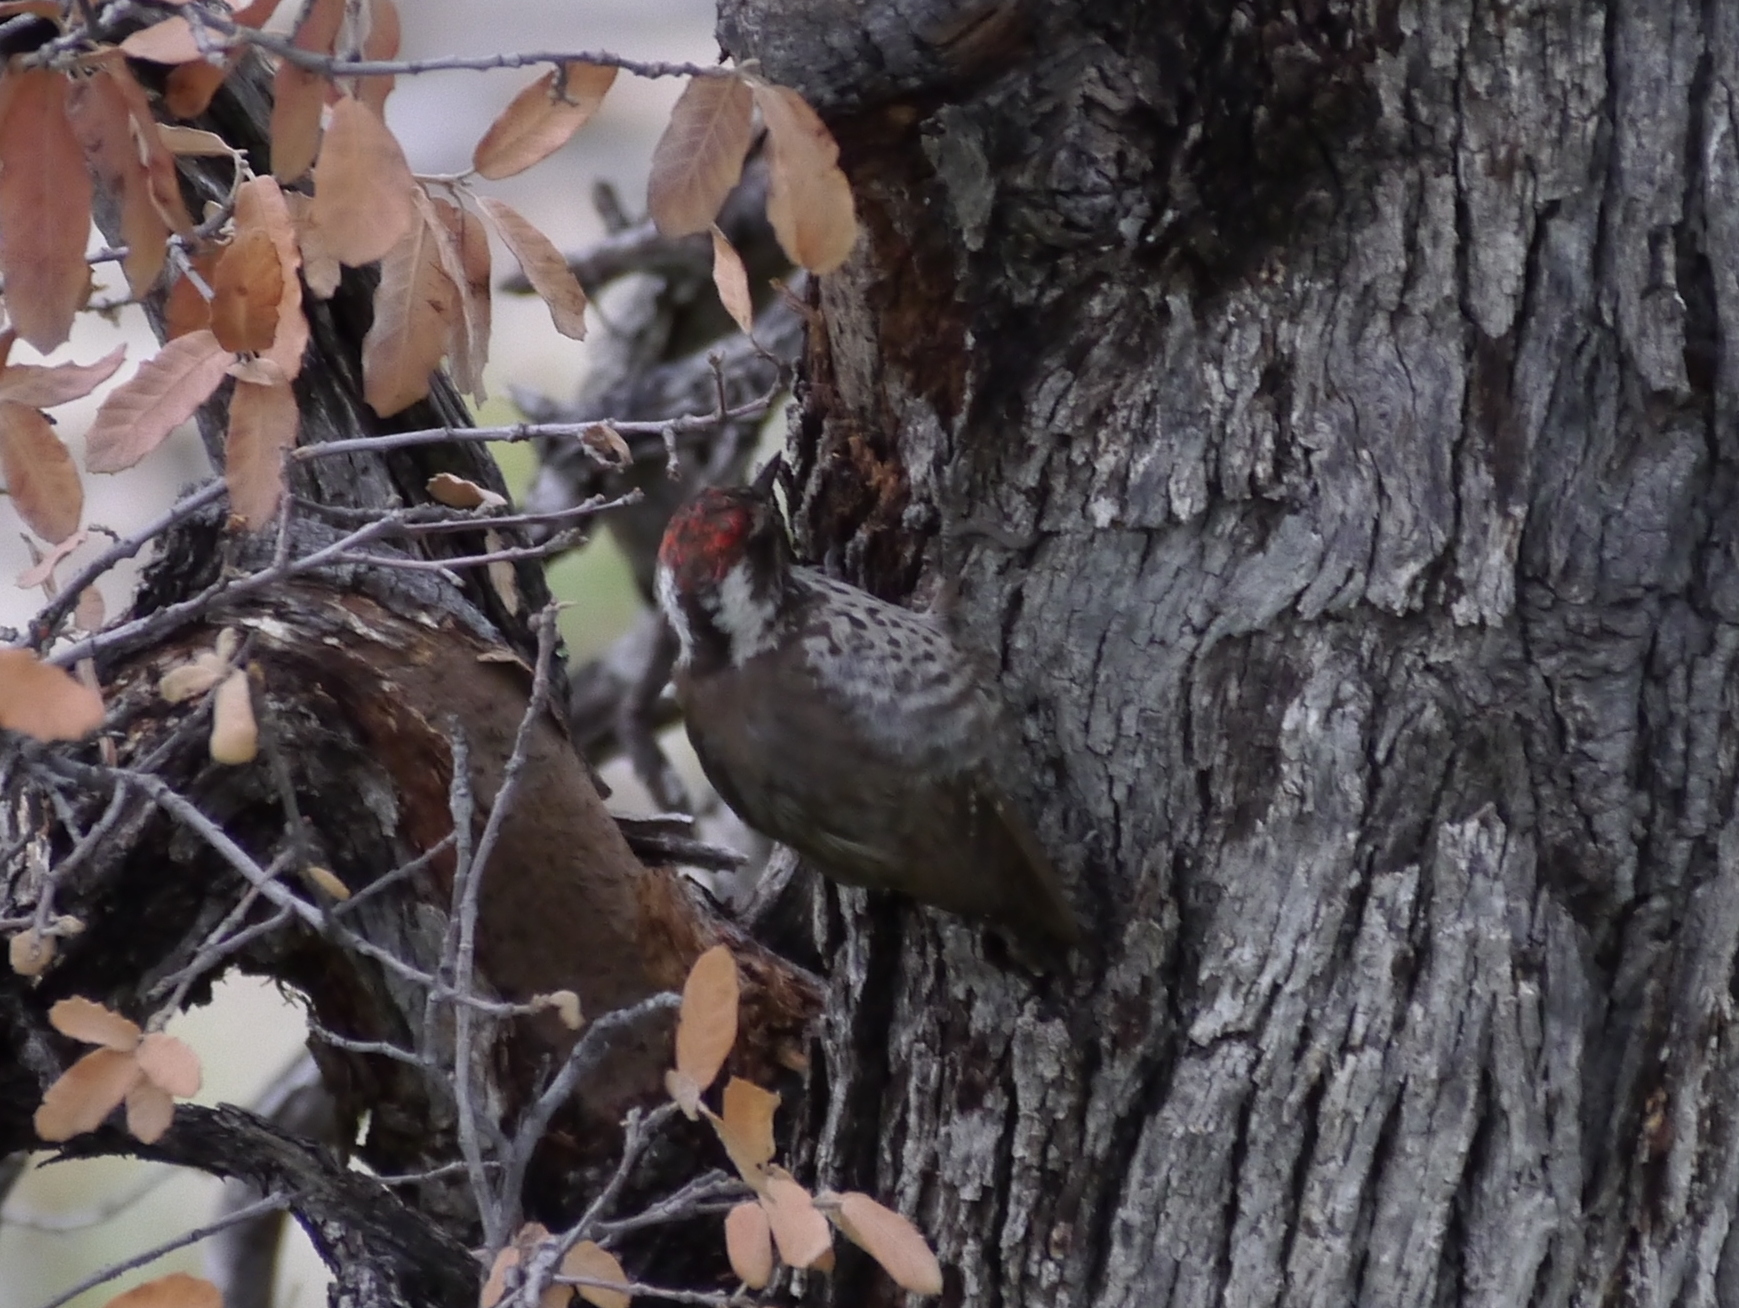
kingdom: Animalia
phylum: Chordata
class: Aves
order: Piciformes
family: Picidae
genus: Leuconotopicus
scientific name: Leuconotopicus arizonae
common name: Arizona woodpecker
